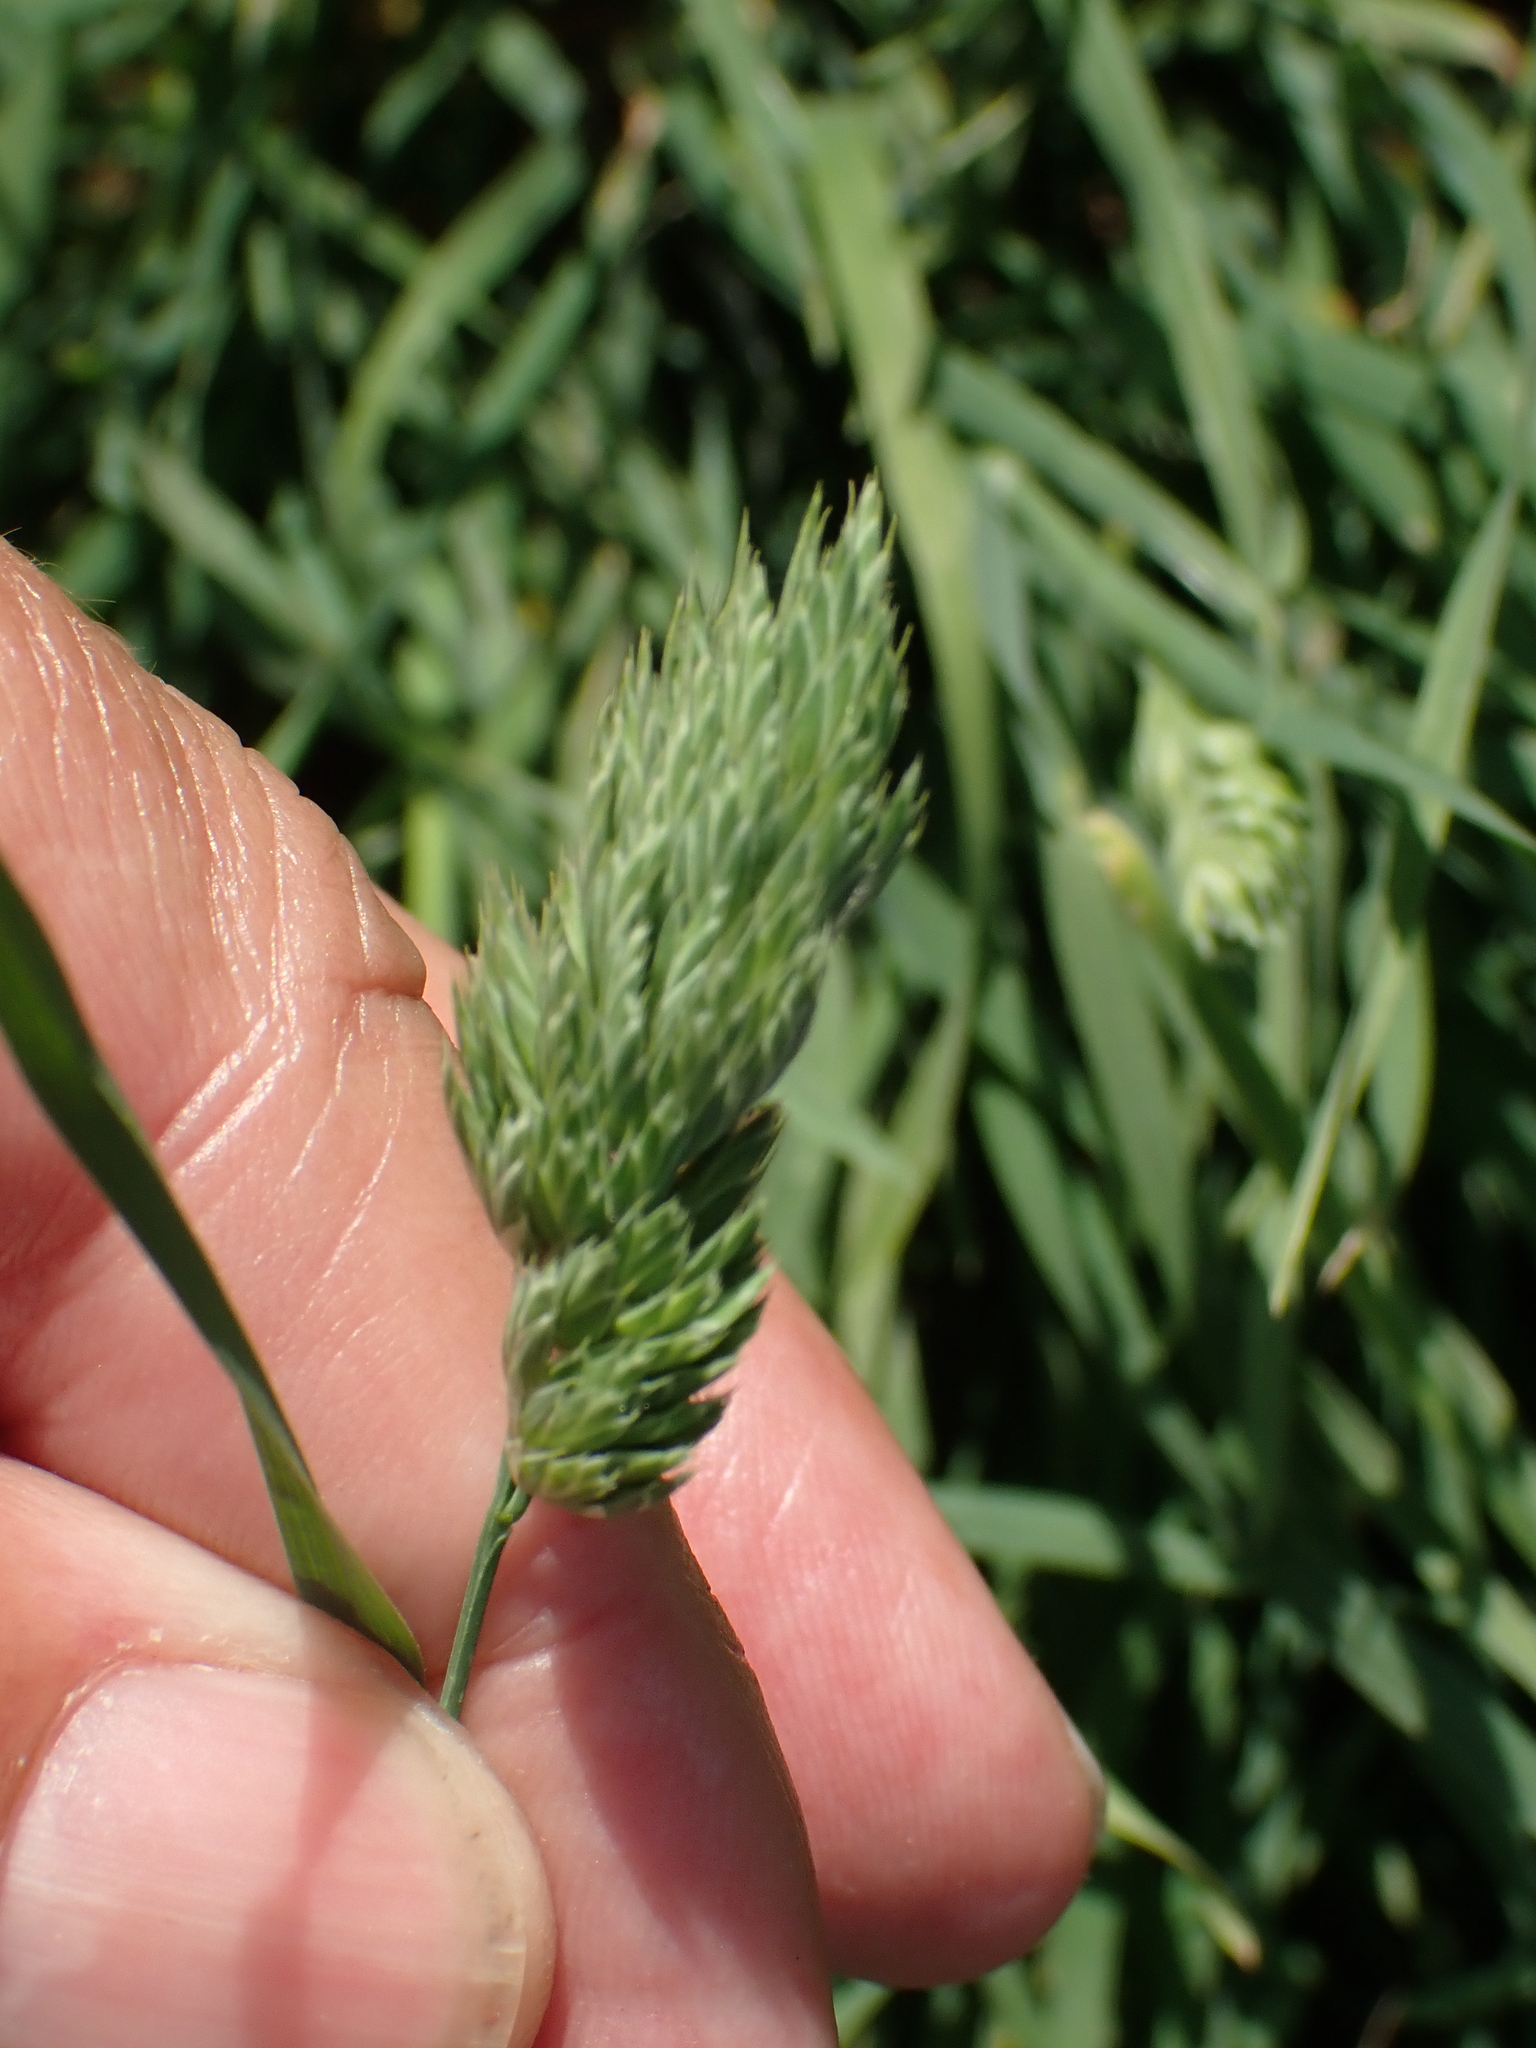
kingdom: Plantae
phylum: Tracheophyta
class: Liliopsida
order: Poales
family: Poaceae
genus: Dactylis
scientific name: Dactylis glomerata
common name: Orchardgrass
